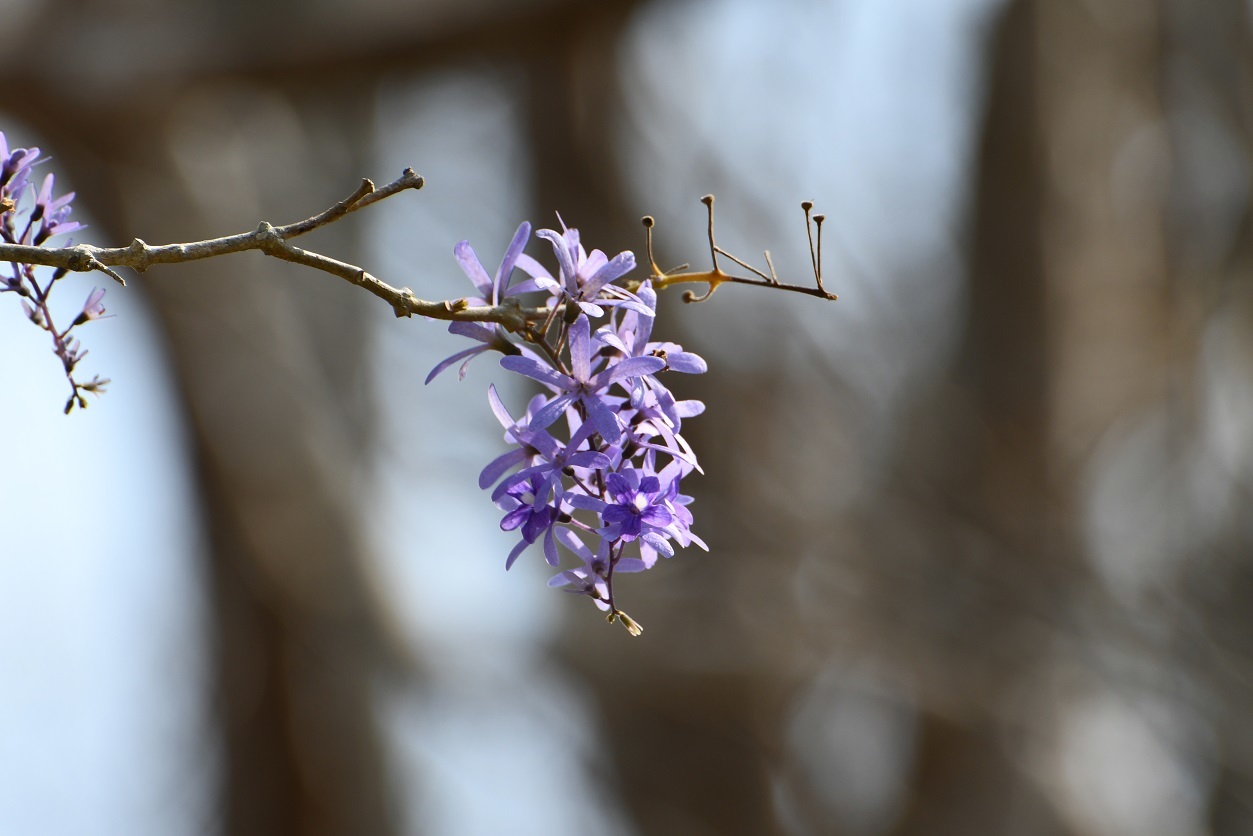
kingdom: Plantae
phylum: Tracheophyta
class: Magnoliopsida
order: Lamiales
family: Verbenaceae
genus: Petrea
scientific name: Petrea volubilis
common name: Queen's-wreath
